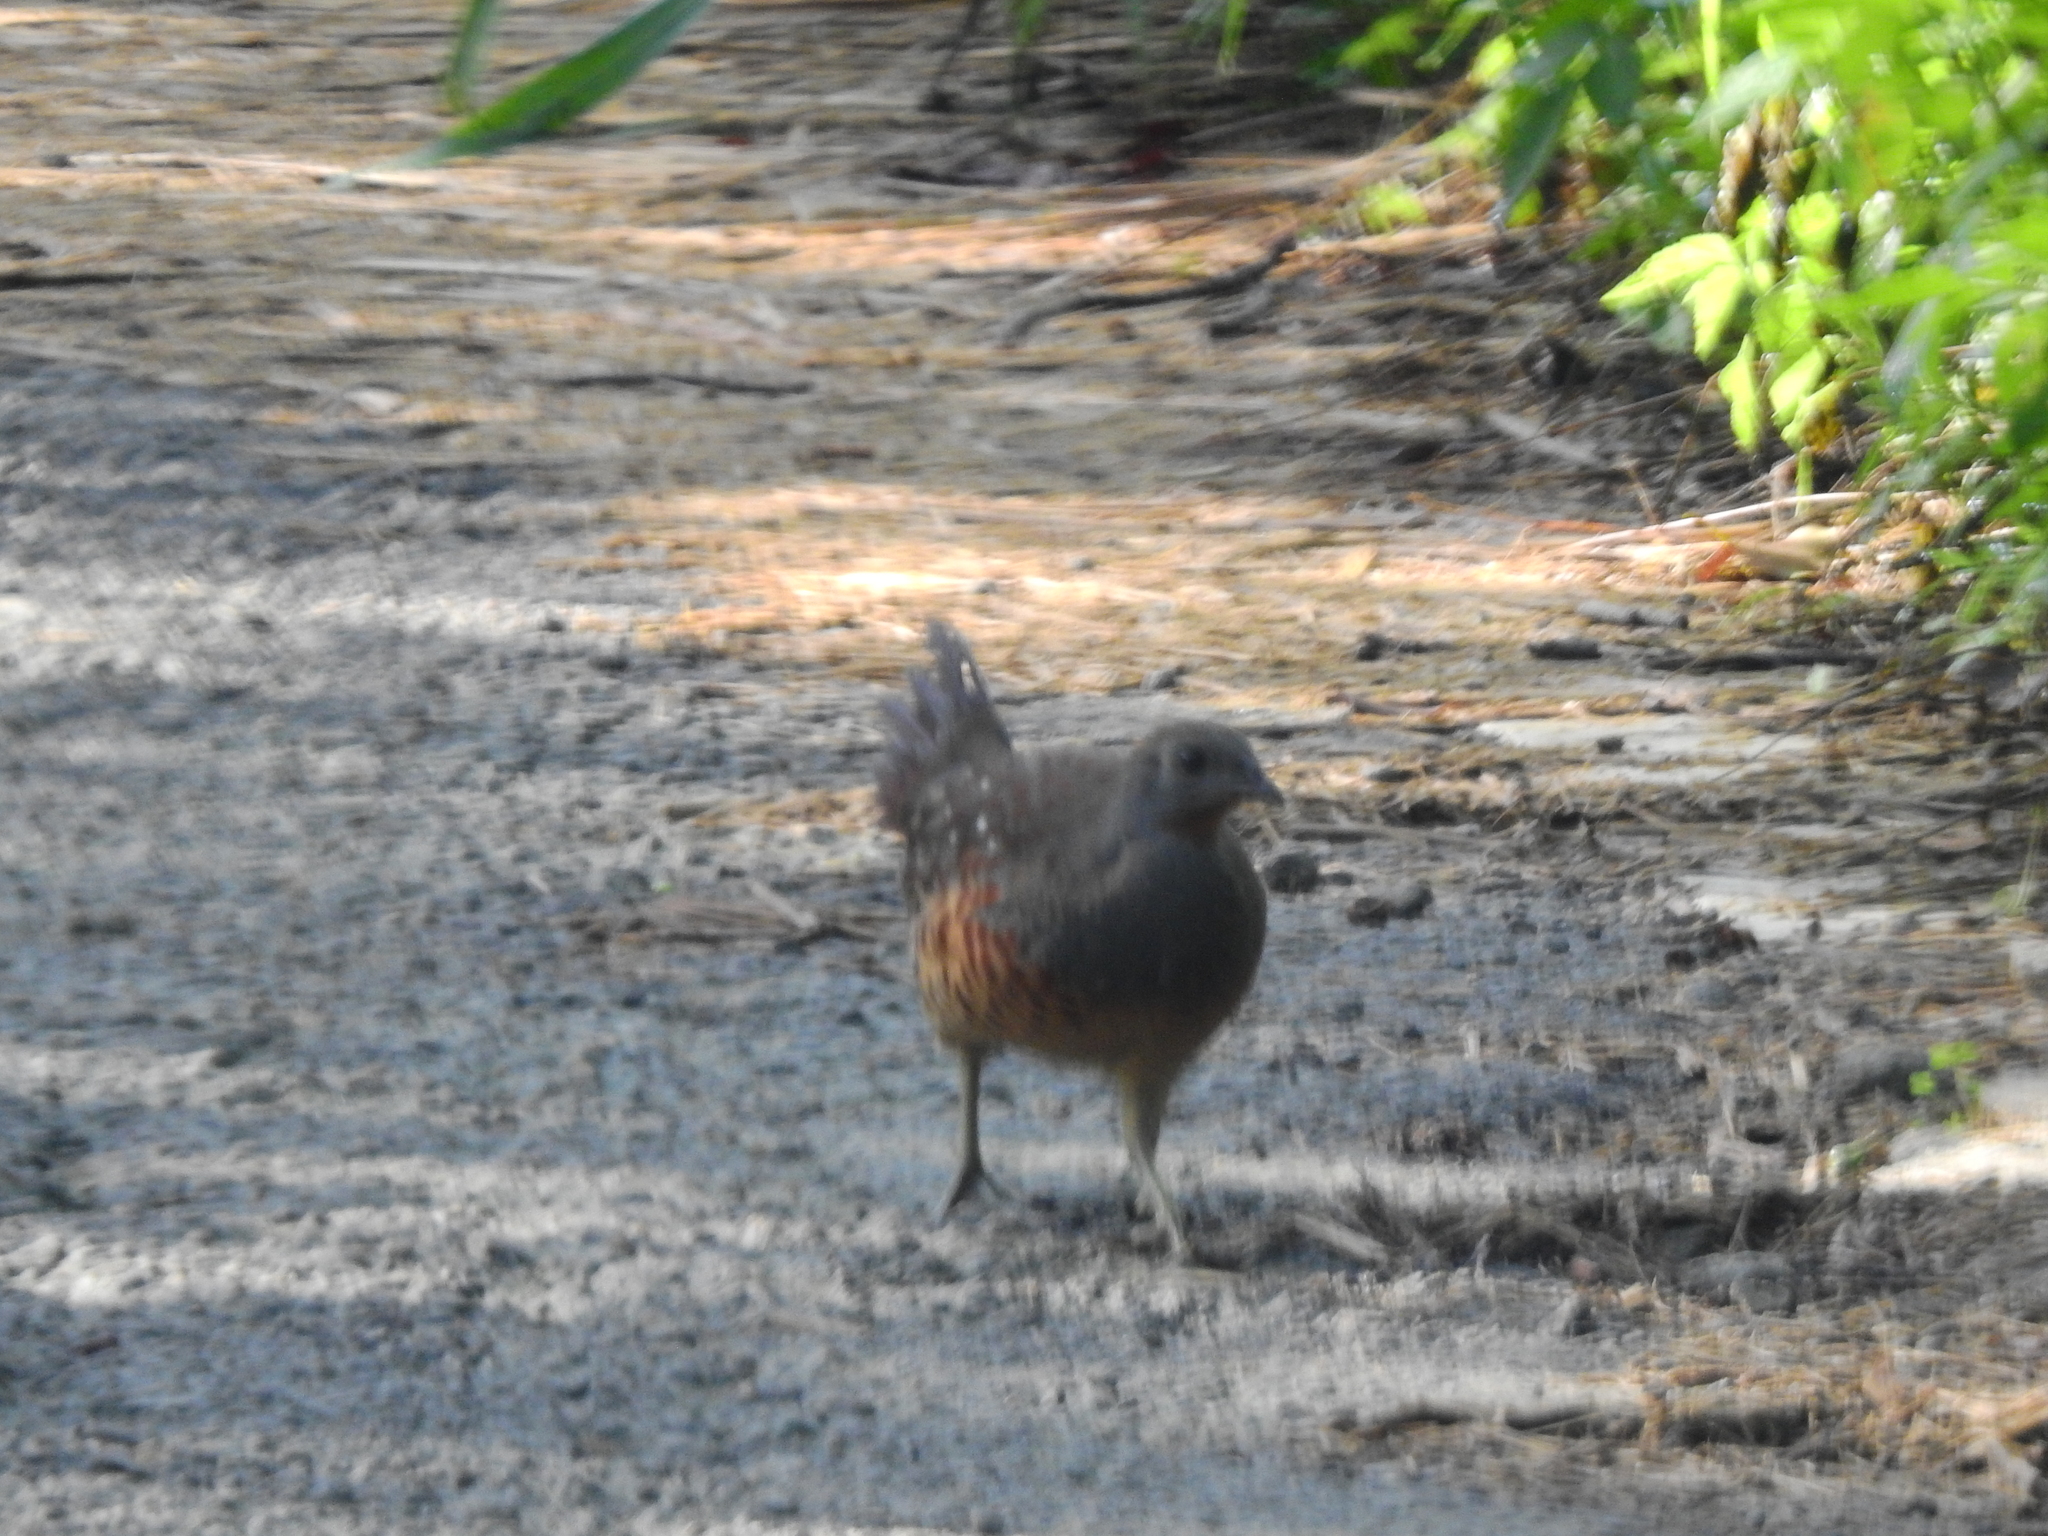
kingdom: Animalia
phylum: Chordata
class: Aves
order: Galliformes
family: Phasianidae
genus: Bambusicola
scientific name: Bambusicola sonorivox
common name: Taiwan bamboo-partridge
